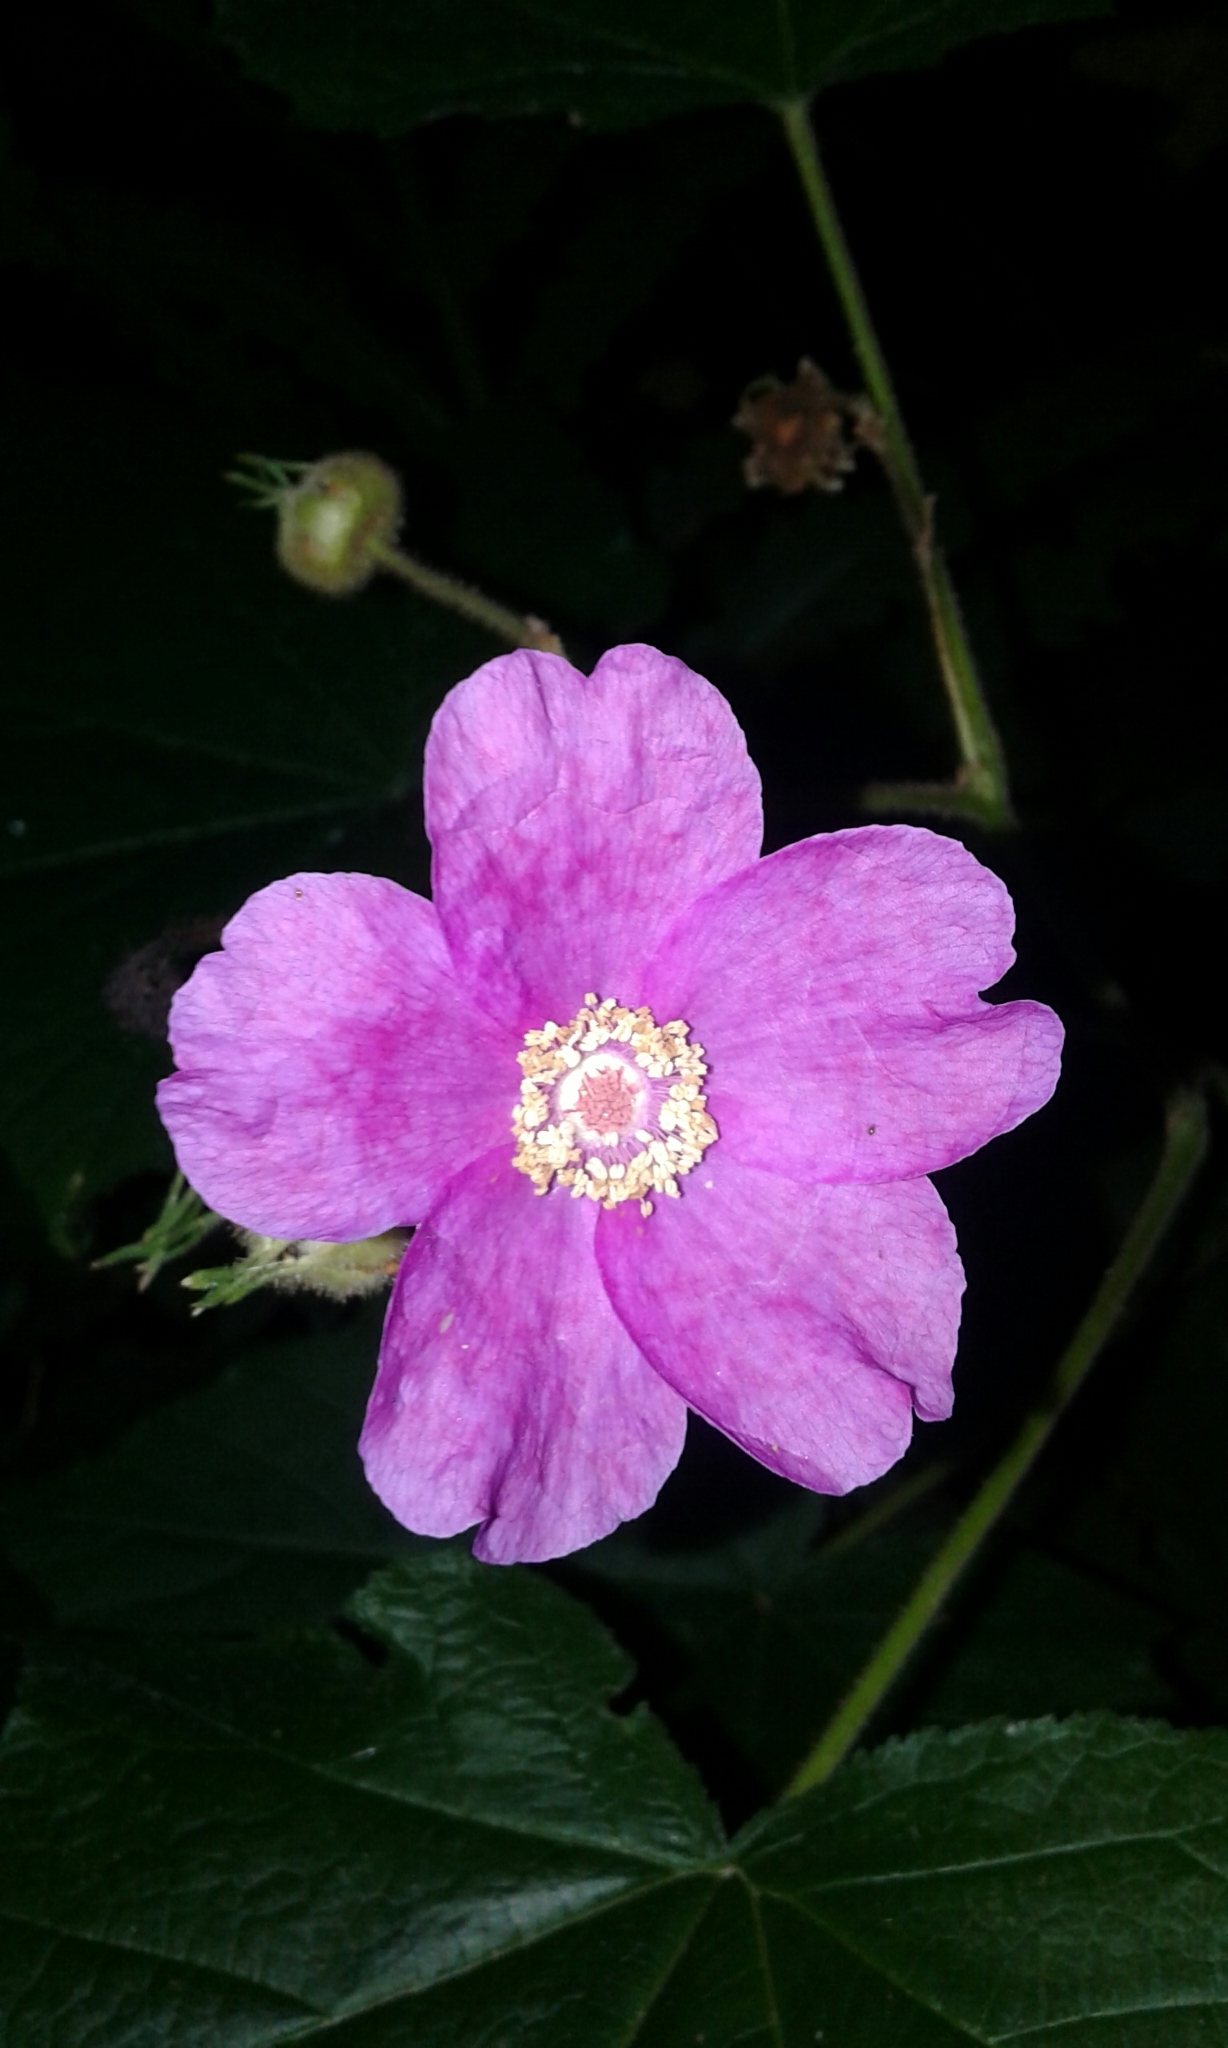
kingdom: Plantae
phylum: Tracheophyta
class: Magnoliopsida
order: Rosales
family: Rosaceae
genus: Rubus
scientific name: Rubus odoratus
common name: Purple-flowered raspberry
